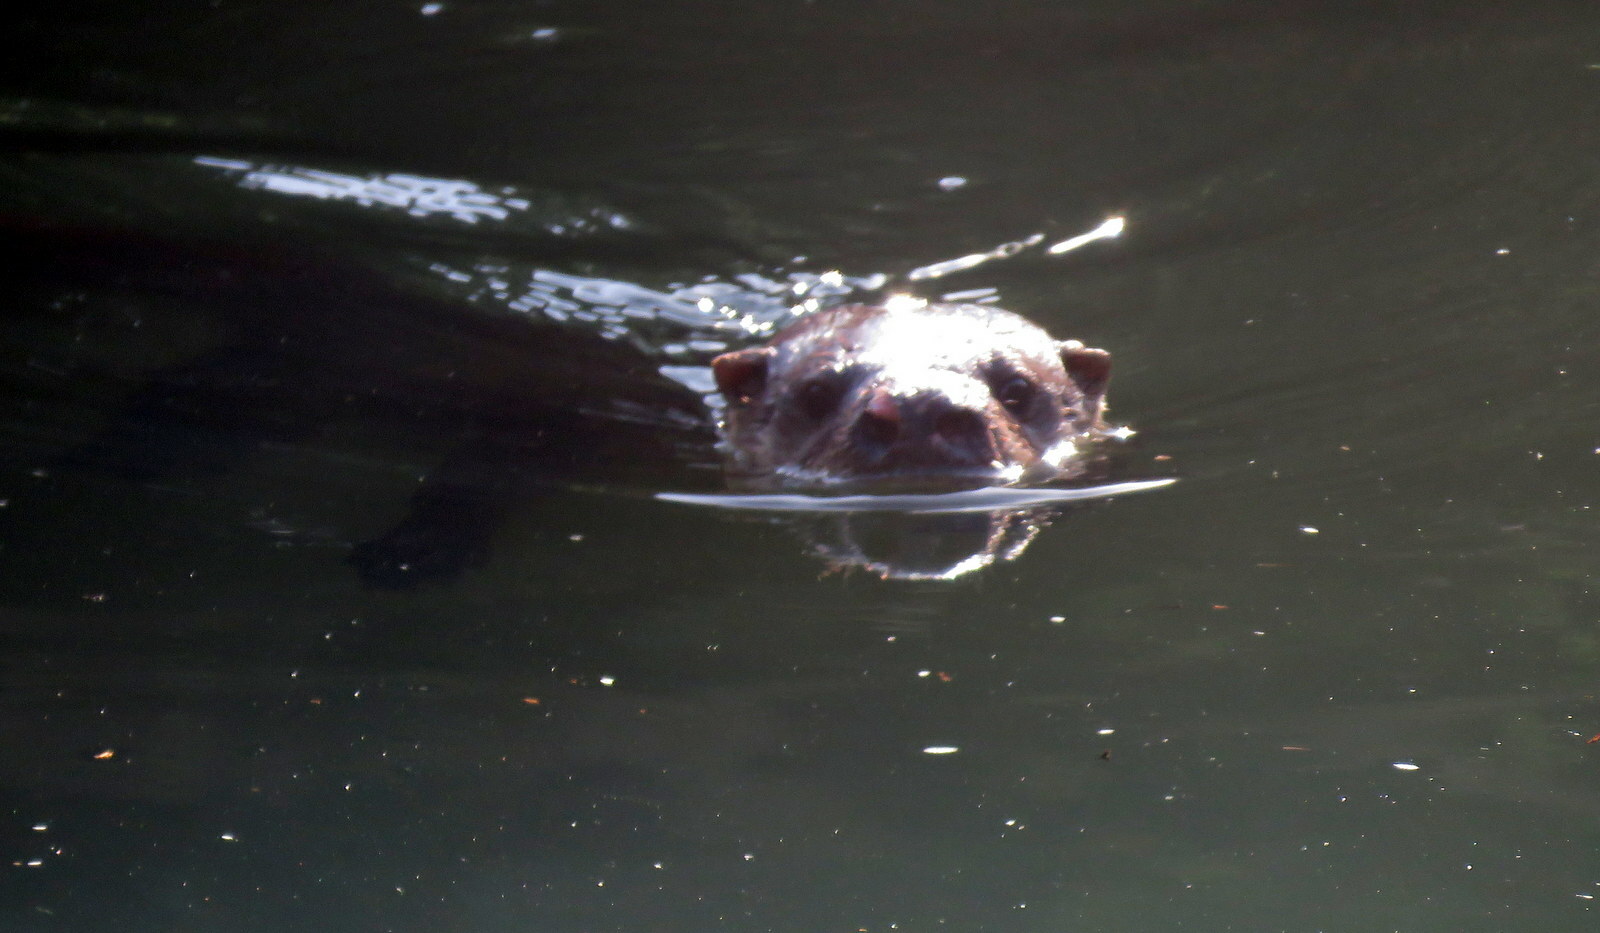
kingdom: Animalia
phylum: Chordata
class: Mammalia
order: Carnivora
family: Mustelidae
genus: Lontra
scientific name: Lontra longicaudis
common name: Neotropical otter
